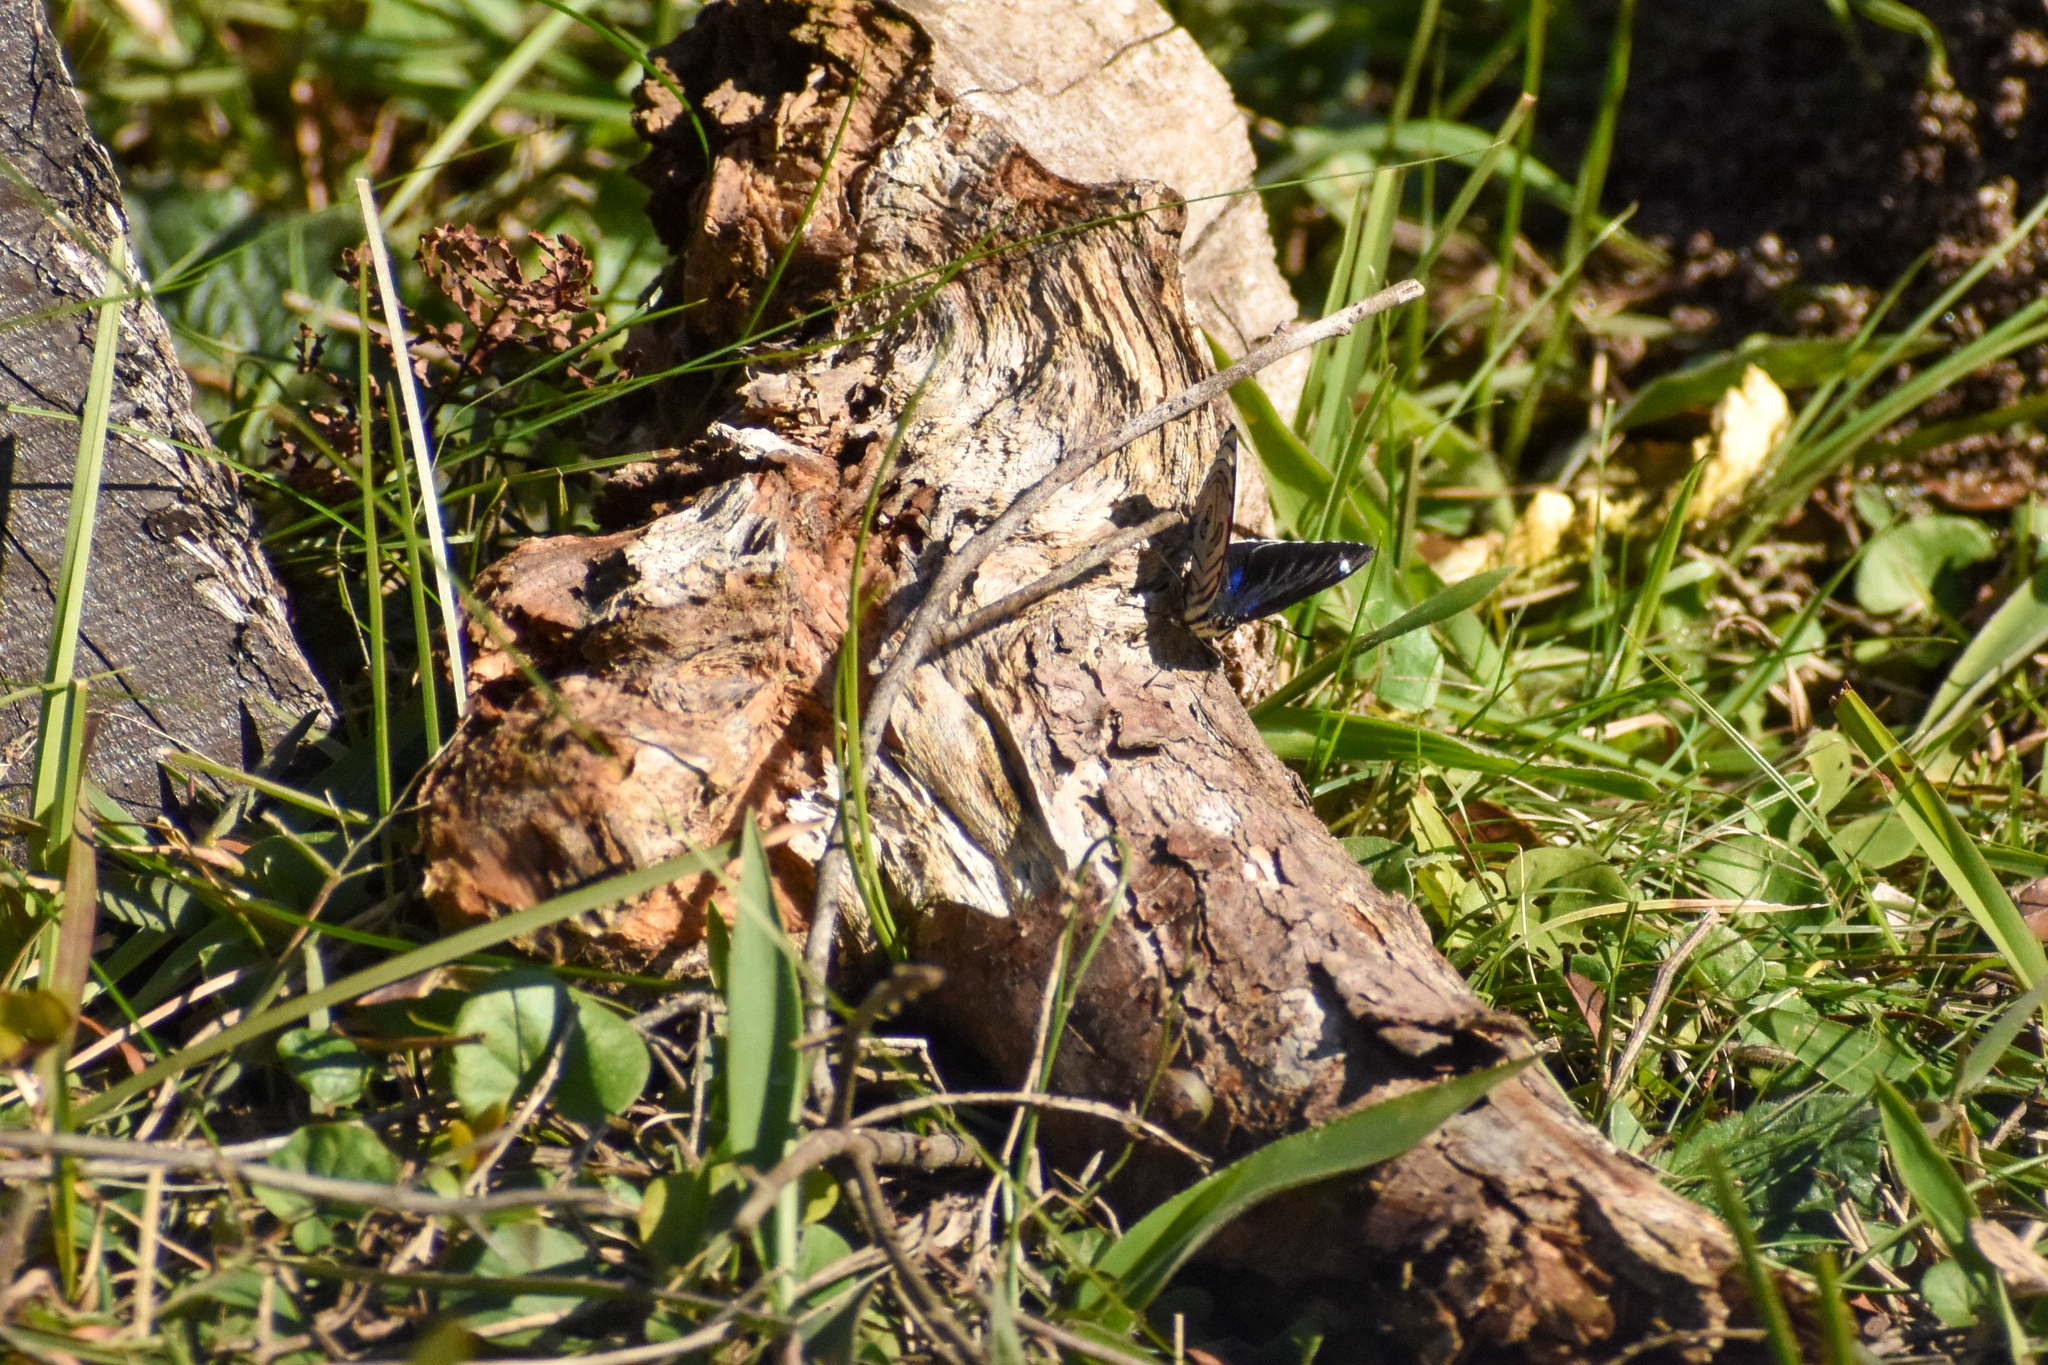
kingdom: Animalia
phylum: Arthropoda
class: Insecta
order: Lepidoptera
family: Nymphalidae
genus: Diaethria
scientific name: Diaethria candrena
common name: Number eighty
